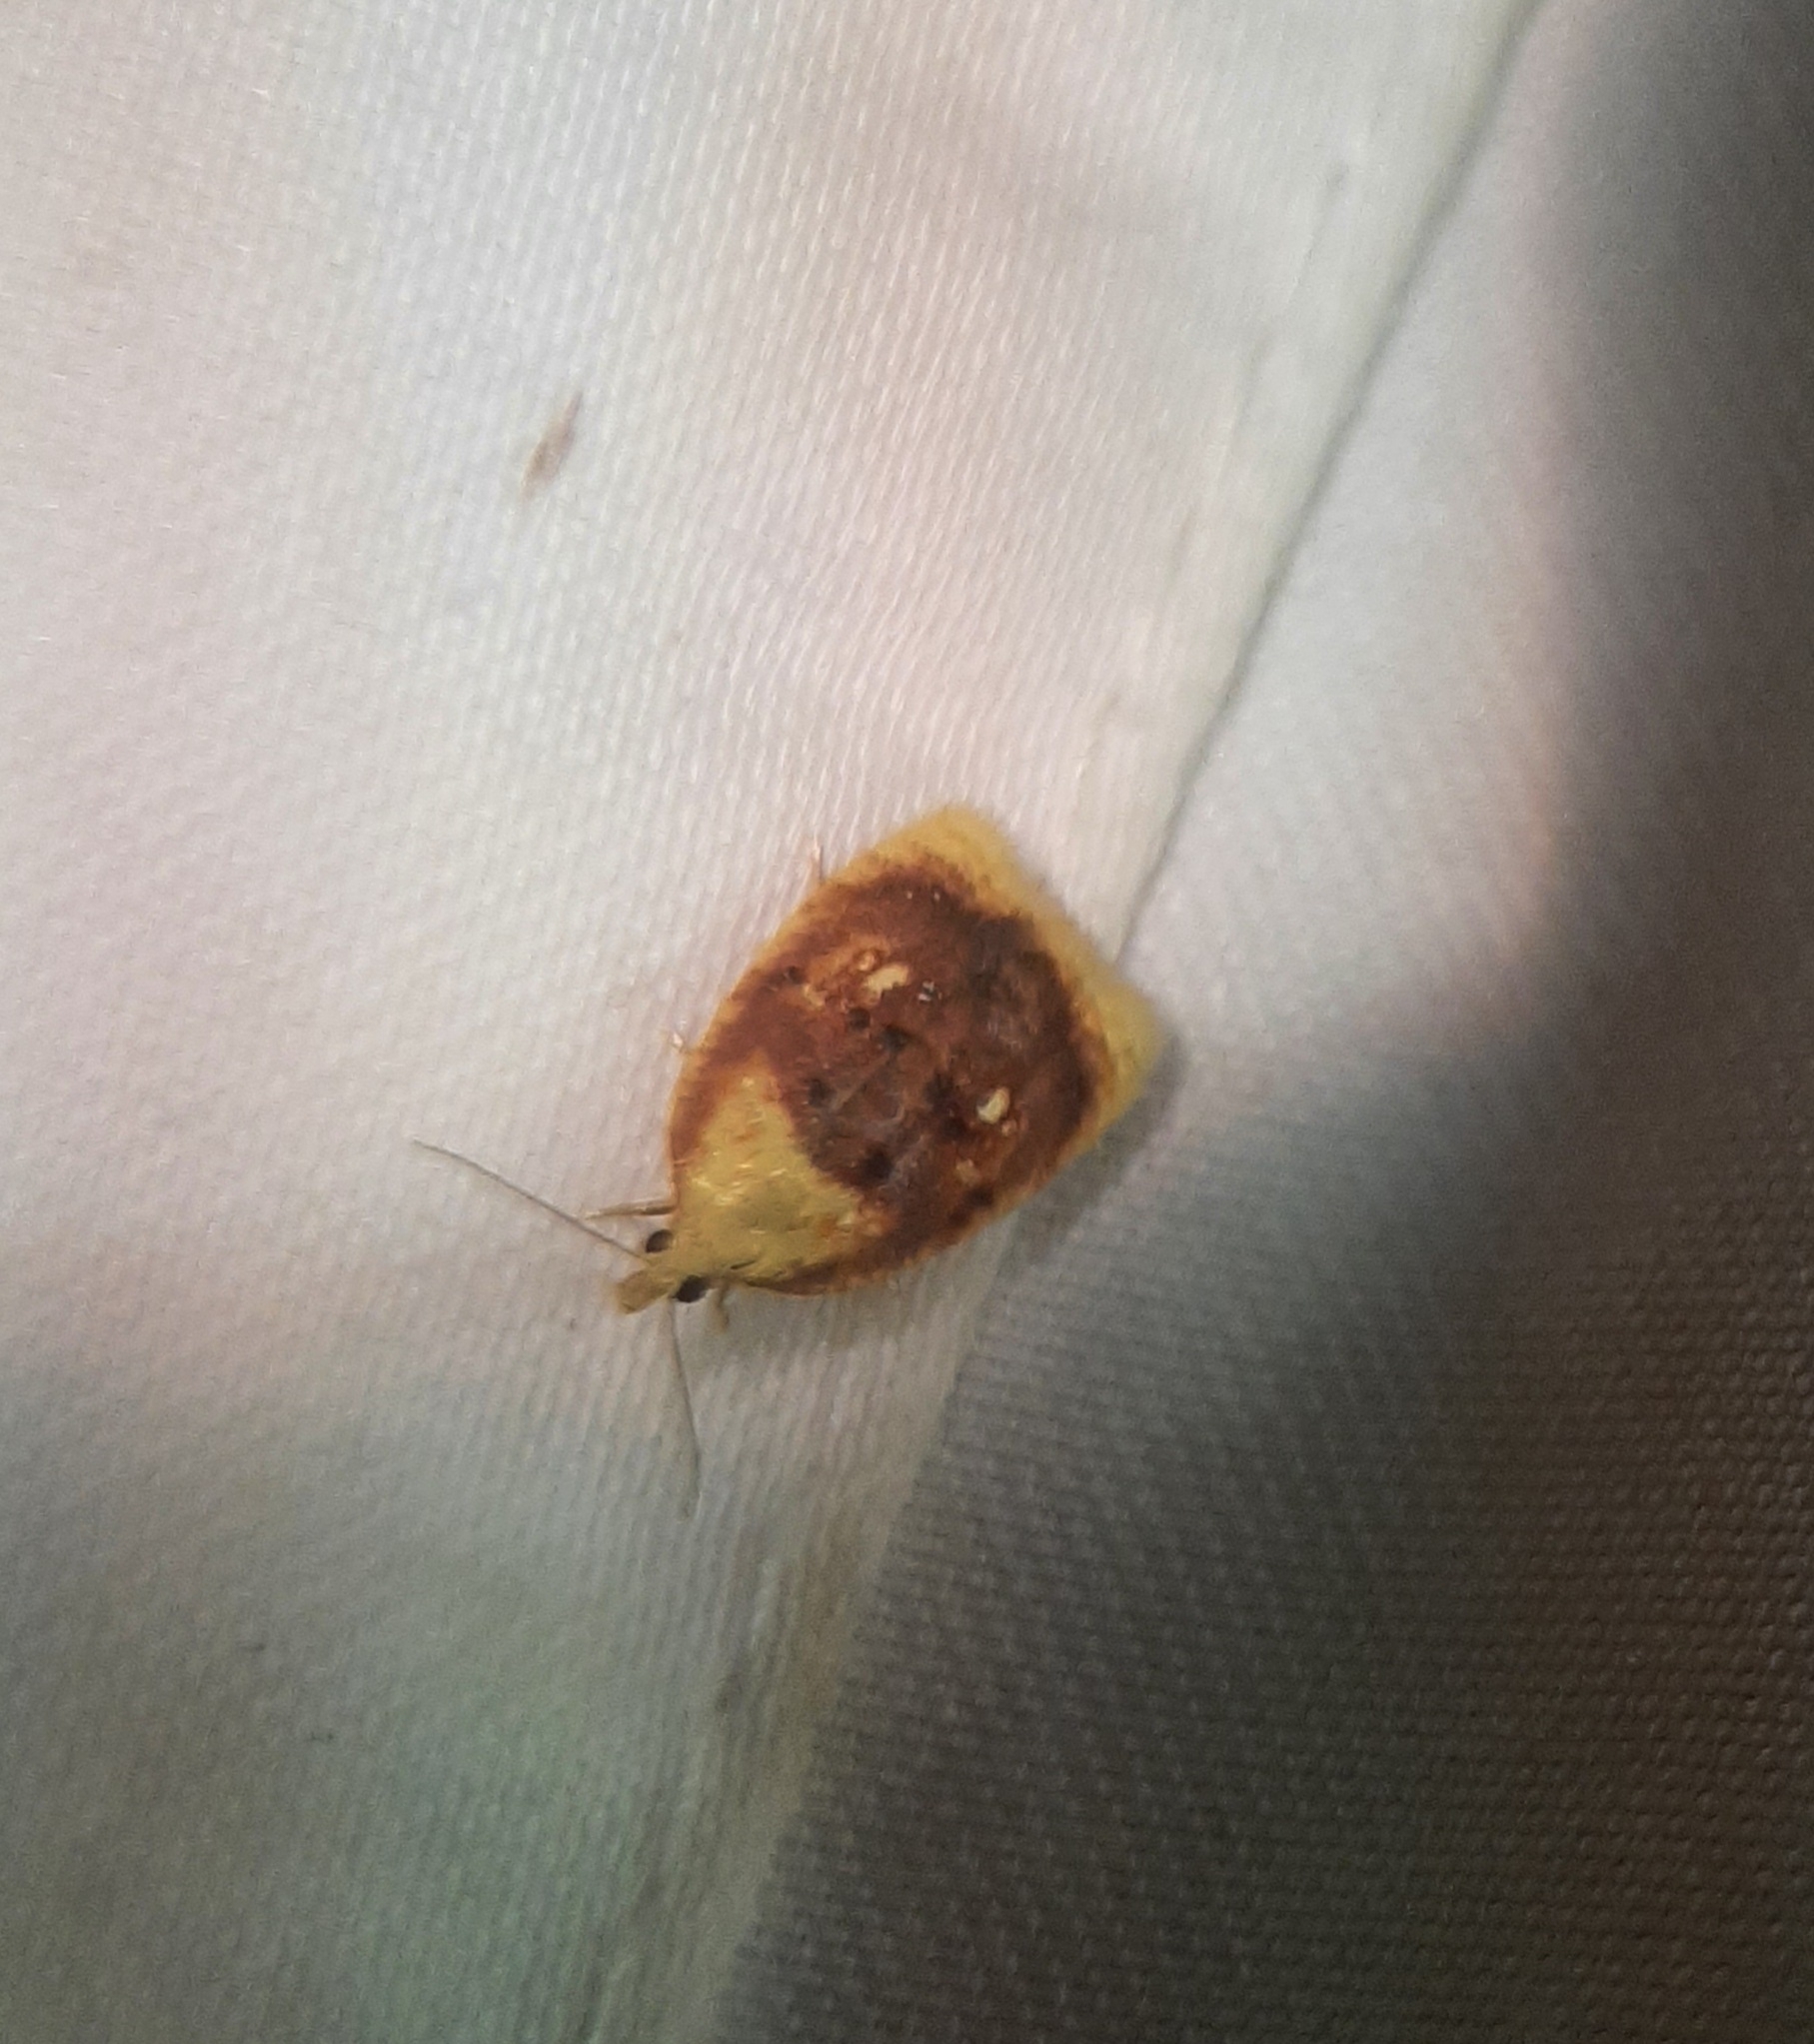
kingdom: Animalia
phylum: Arthropoda
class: Insecta
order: Lepidoptera
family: Tortricidae
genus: Acleris
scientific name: Acleris curvalana
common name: Blueberry leaftier moth
